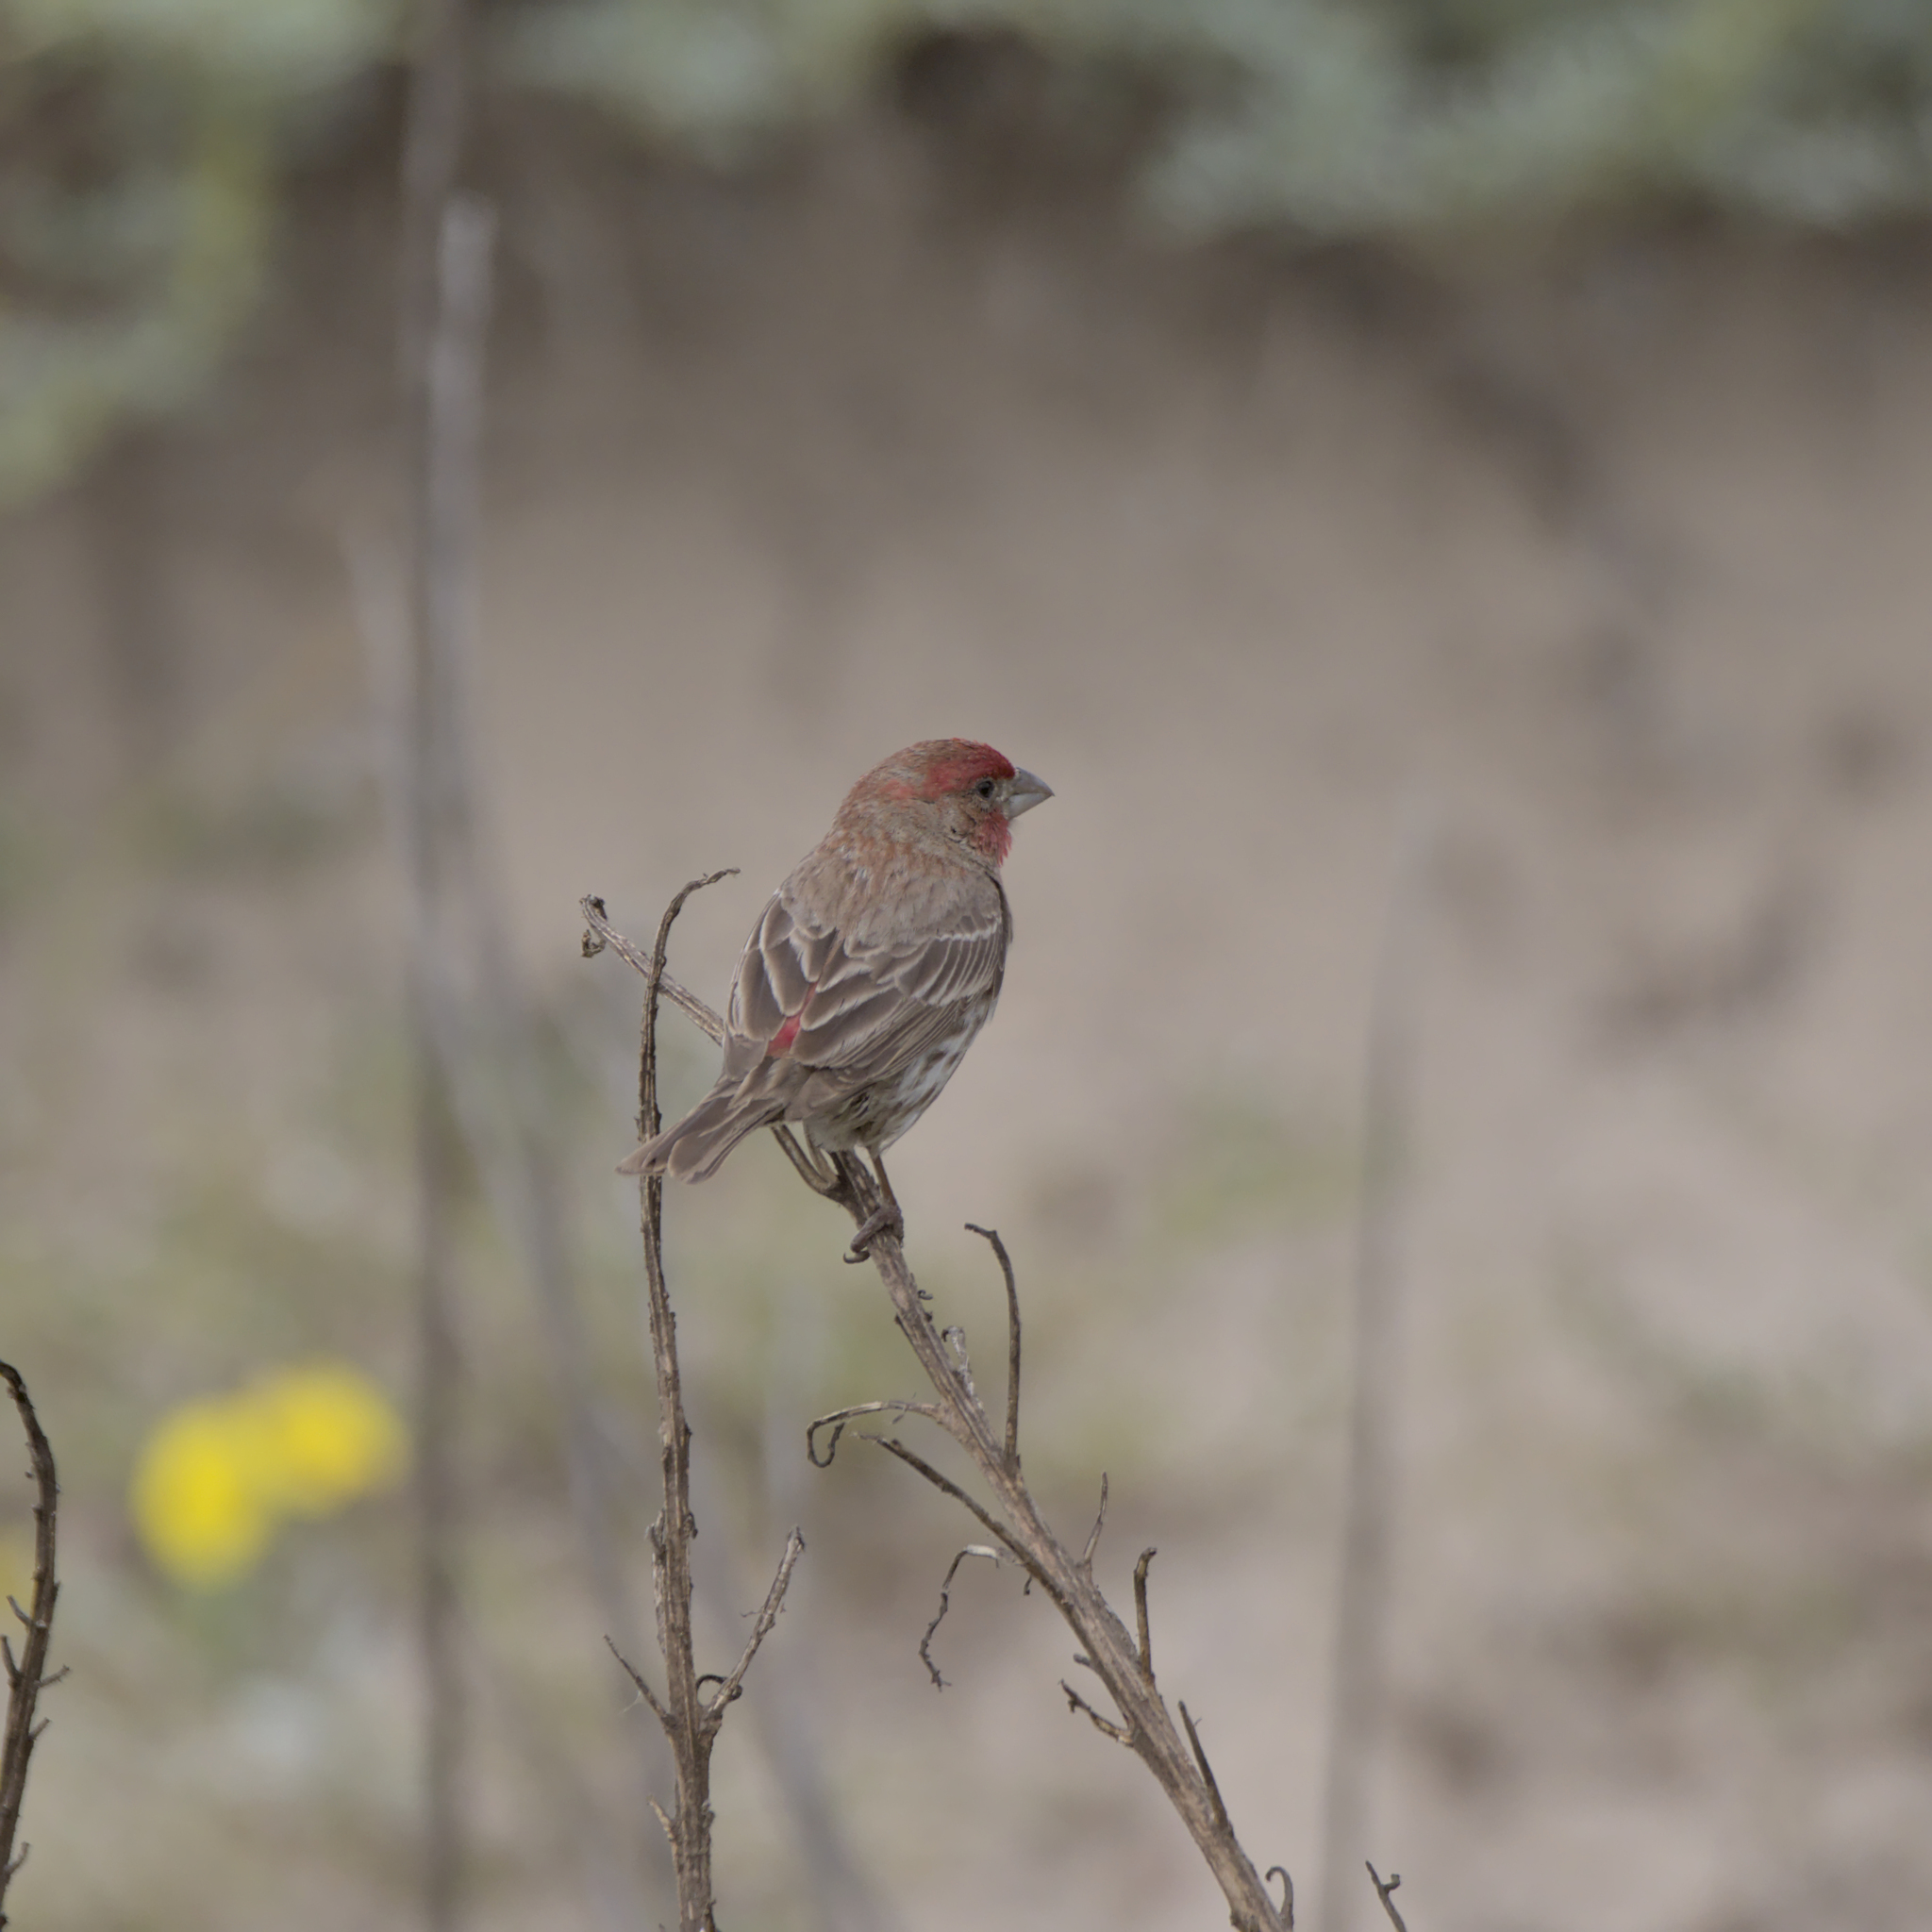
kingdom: Animalia
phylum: Chordata
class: Aves
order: Passeriformes
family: Fringillidae
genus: Haemorhous
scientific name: Haemorhous mexicanus
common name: House finch
